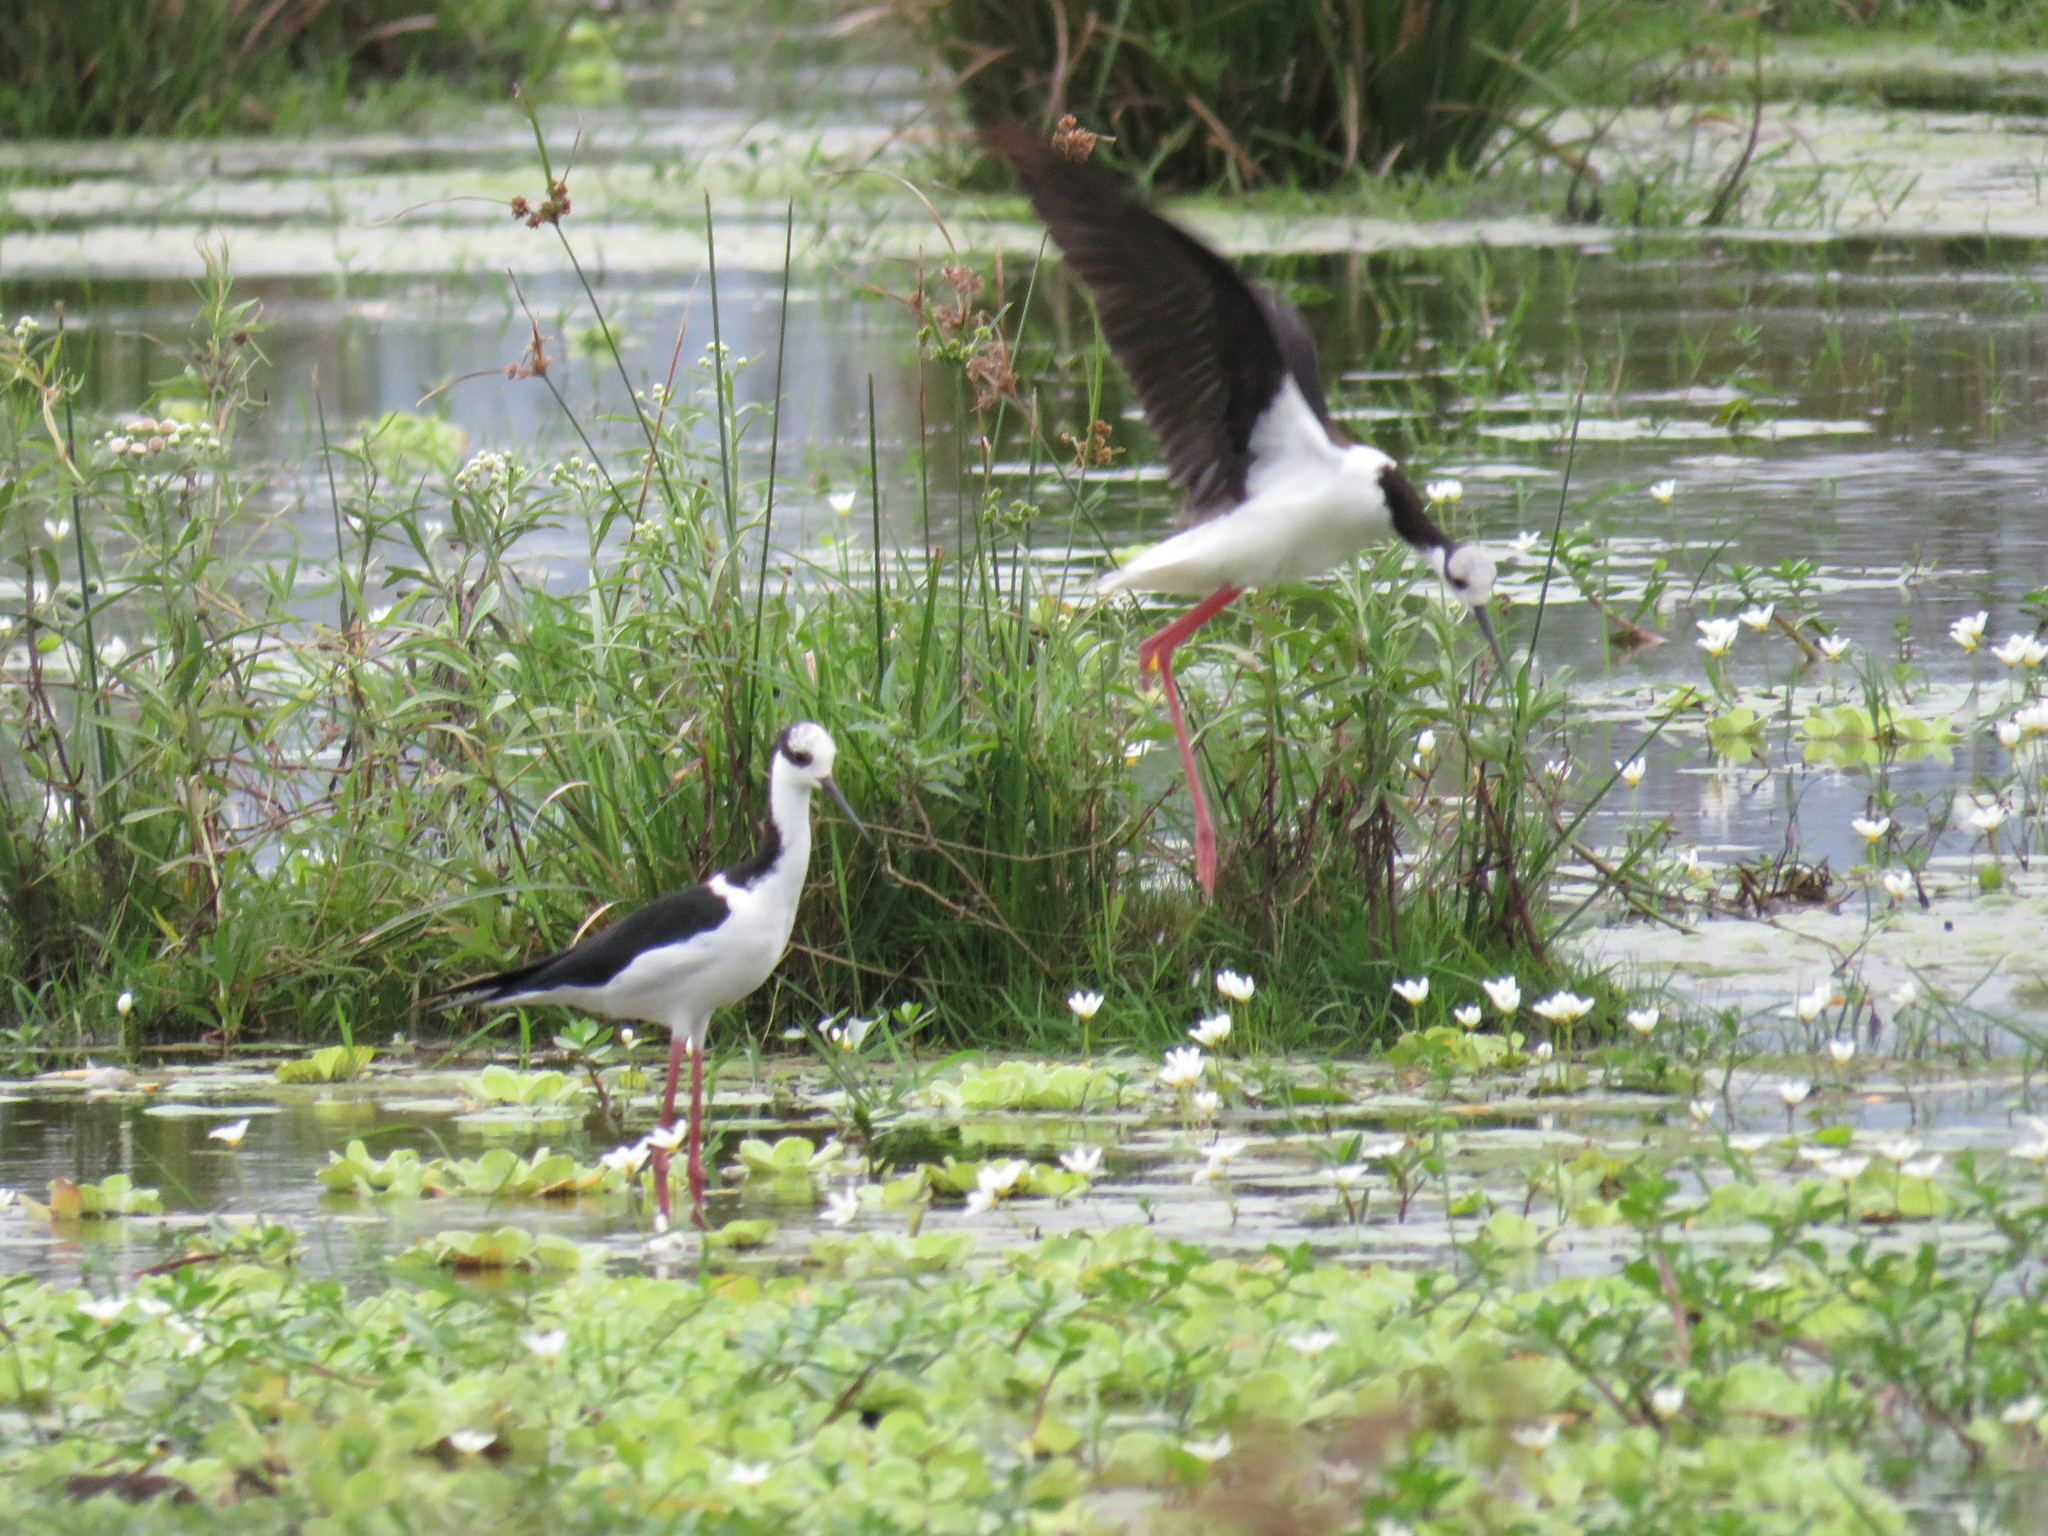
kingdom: Animalia
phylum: Chordata
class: Aves
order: Charadriiformes
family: Recurvirostridae
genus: Himantopus
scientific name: Himantopus mexicanus
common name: Black-necked stilt
